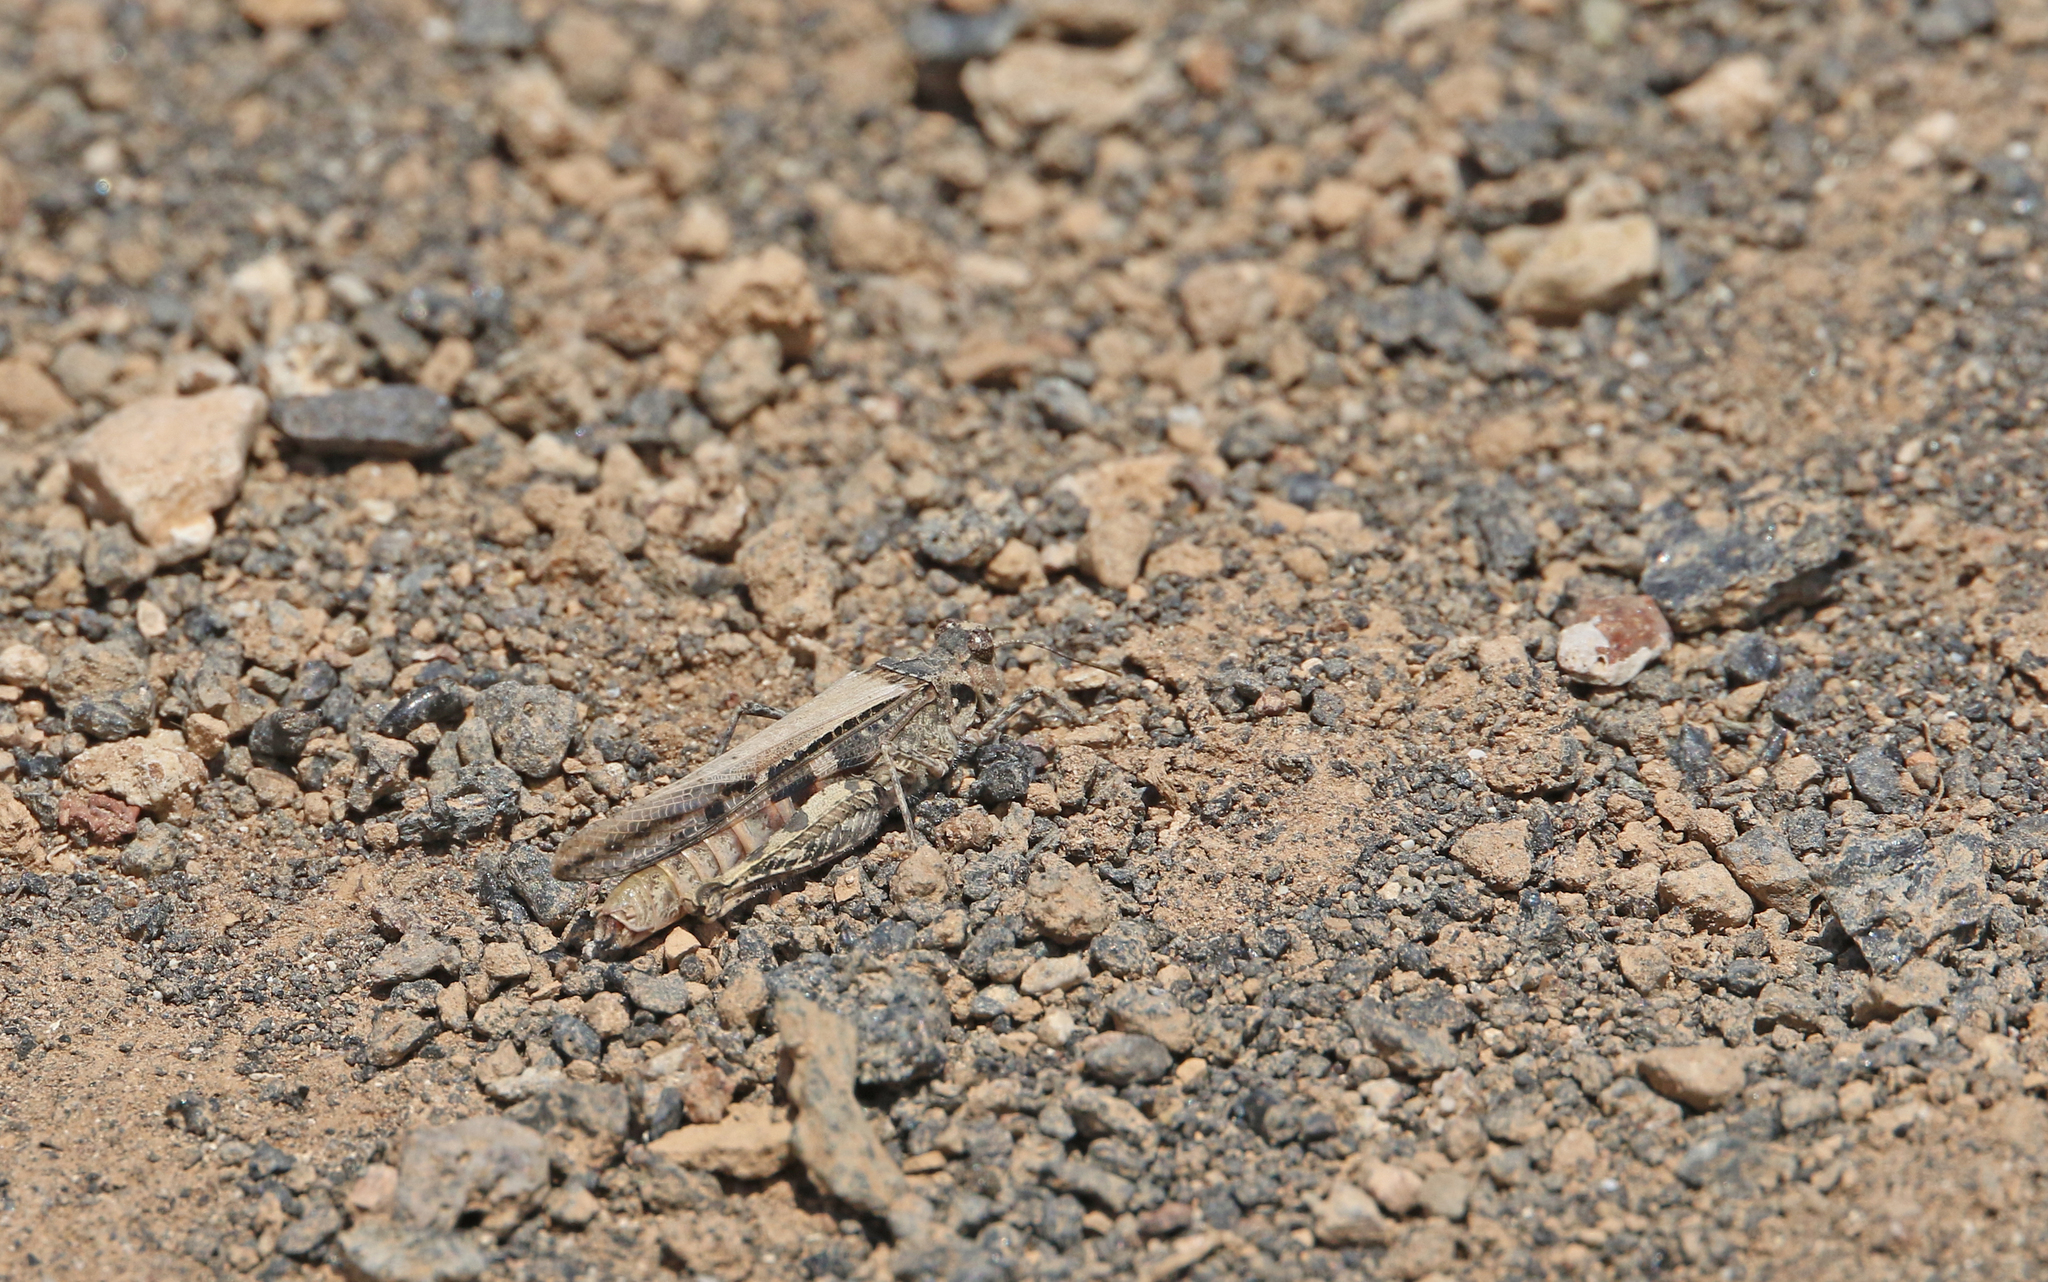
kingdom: Animalia
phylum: Arthropoda
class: Insecta
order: Orthoptera
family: Acrididae
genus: Acrotylus
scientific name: Acrotylus insubricus
